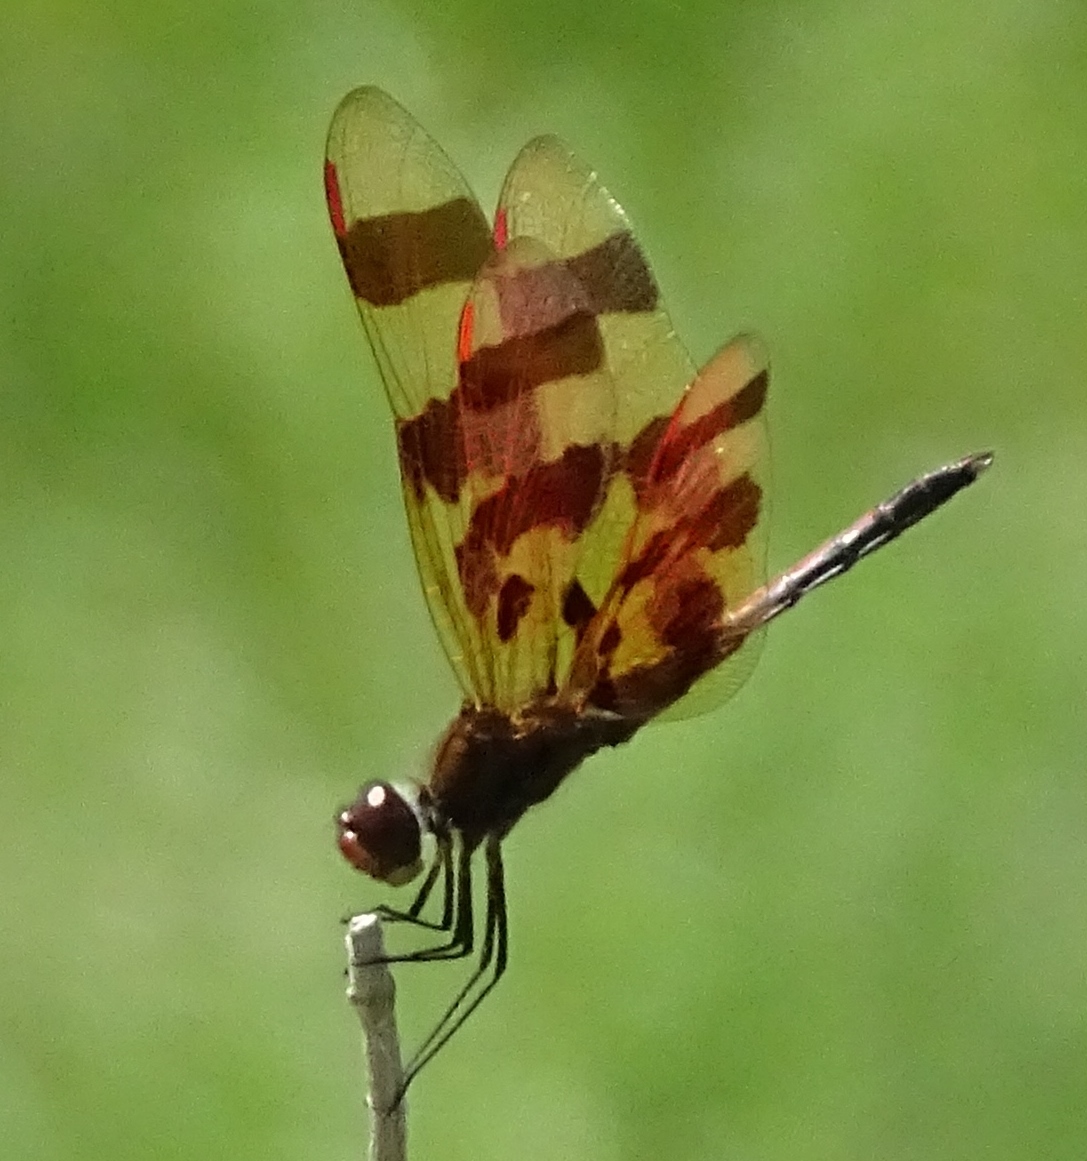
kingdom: Animalia
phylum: Arthropoda
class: Insecta
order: Odonata
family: Libellulidae
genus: Celithemis
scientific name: Celithemis eponina
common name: Halloween pennant
